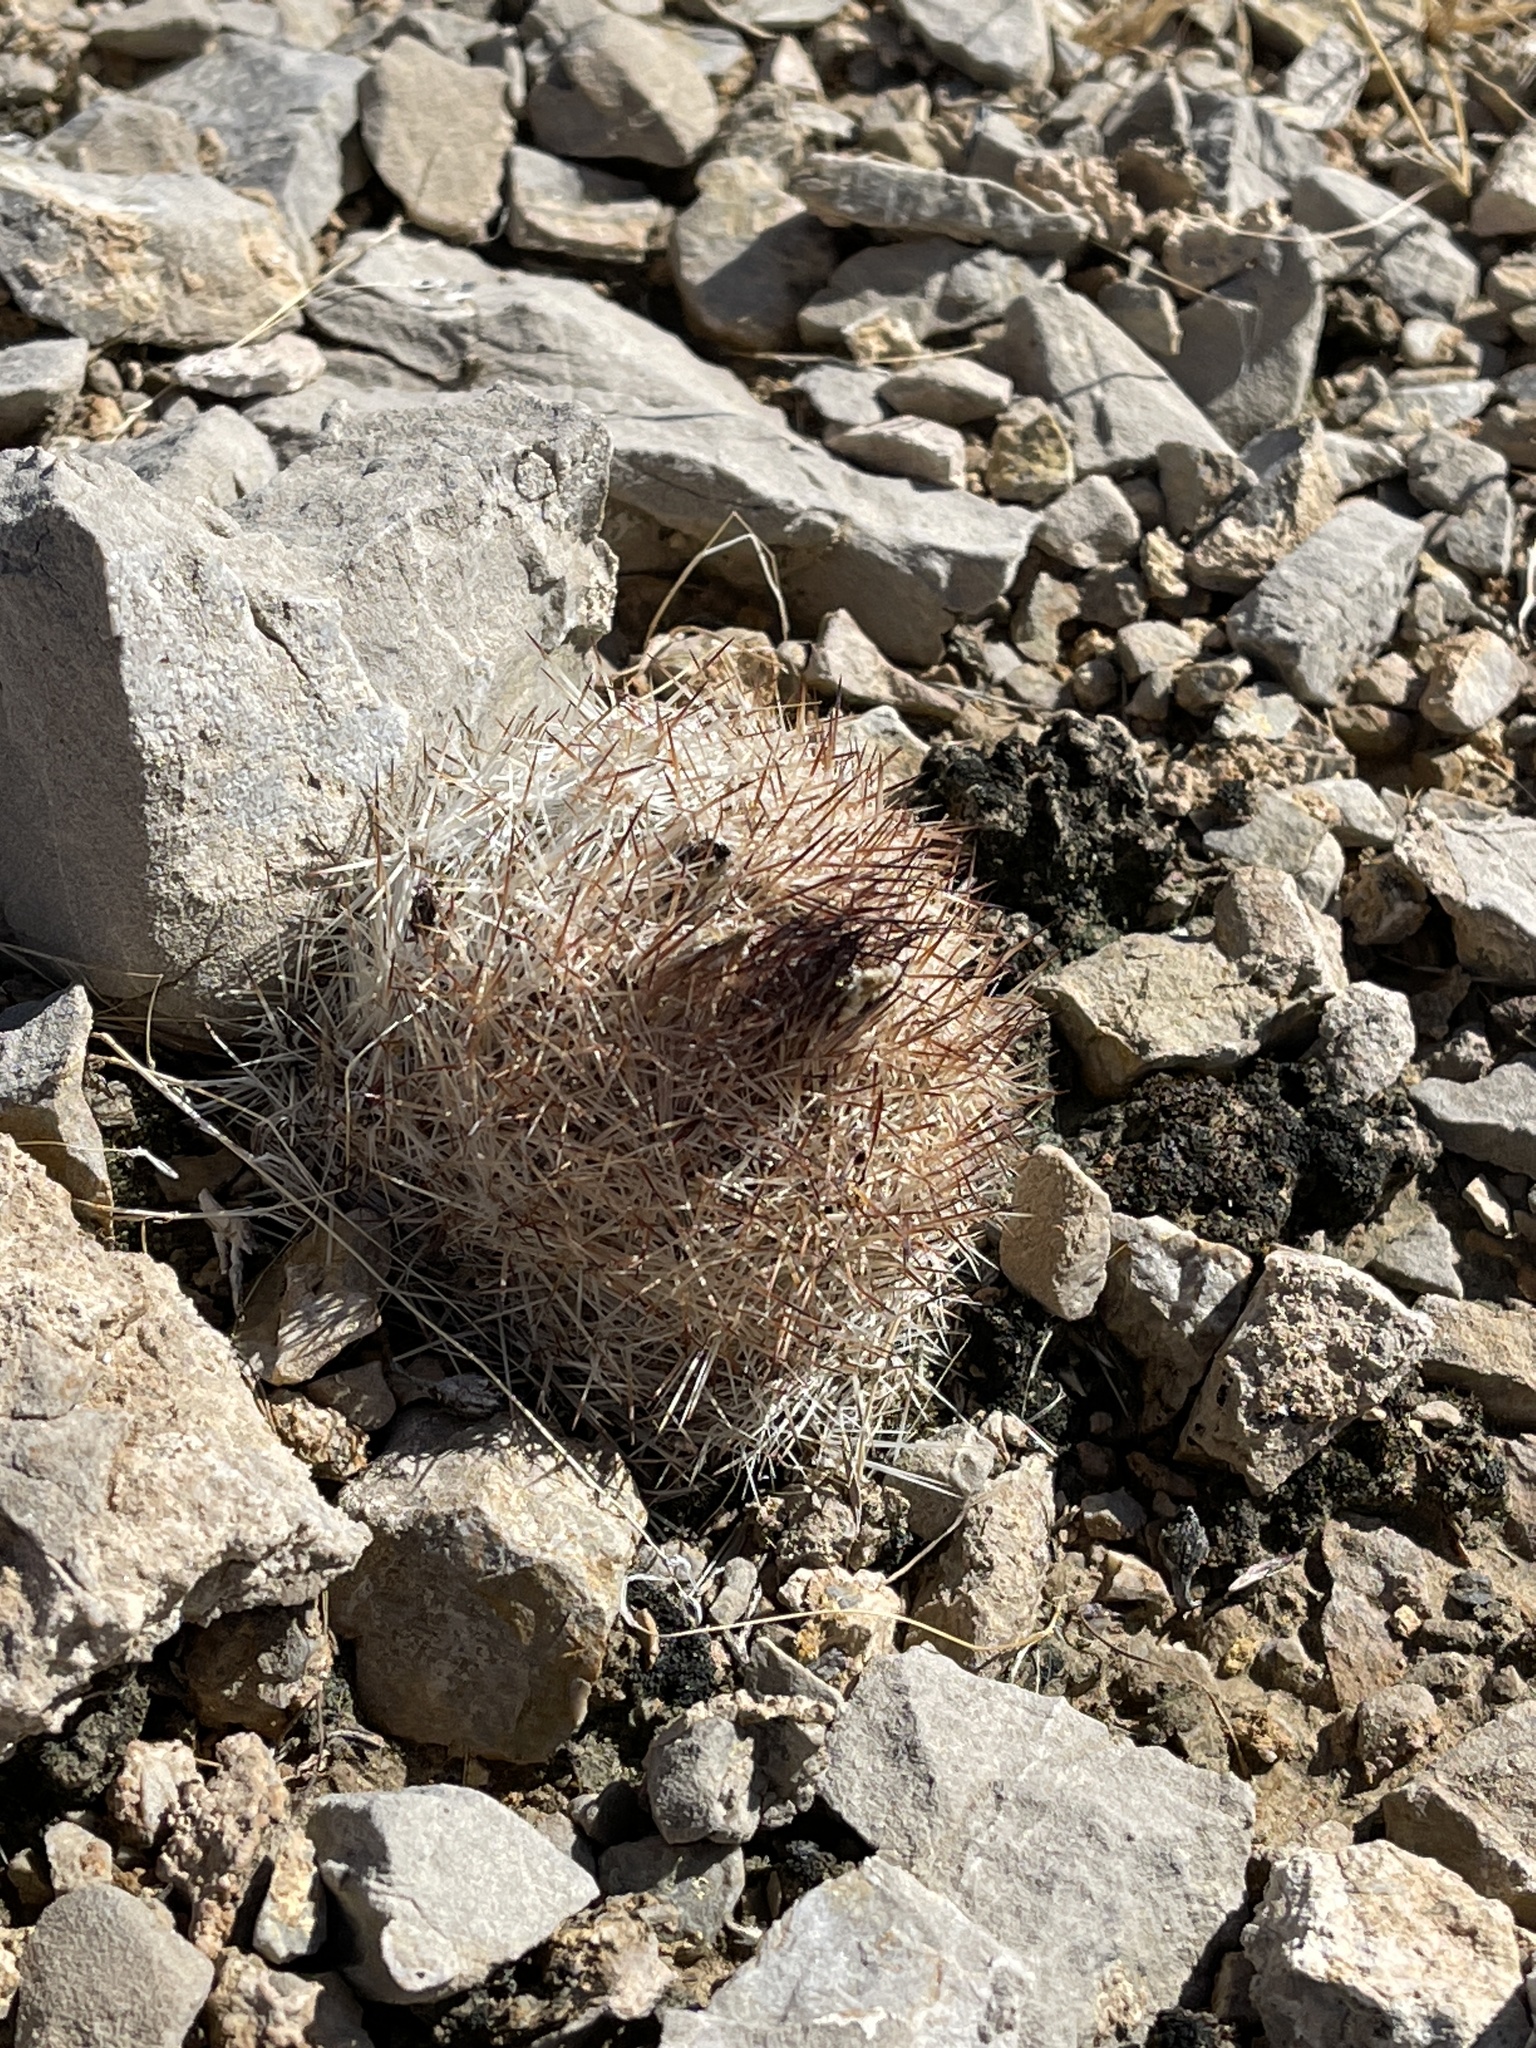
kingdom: Plantae
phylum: Tracheophyta
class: Magnoliopsida
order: Caryophyllales
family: Cactaceae
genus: Pelecyphora
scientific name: Pelecyphora dasyacantha
